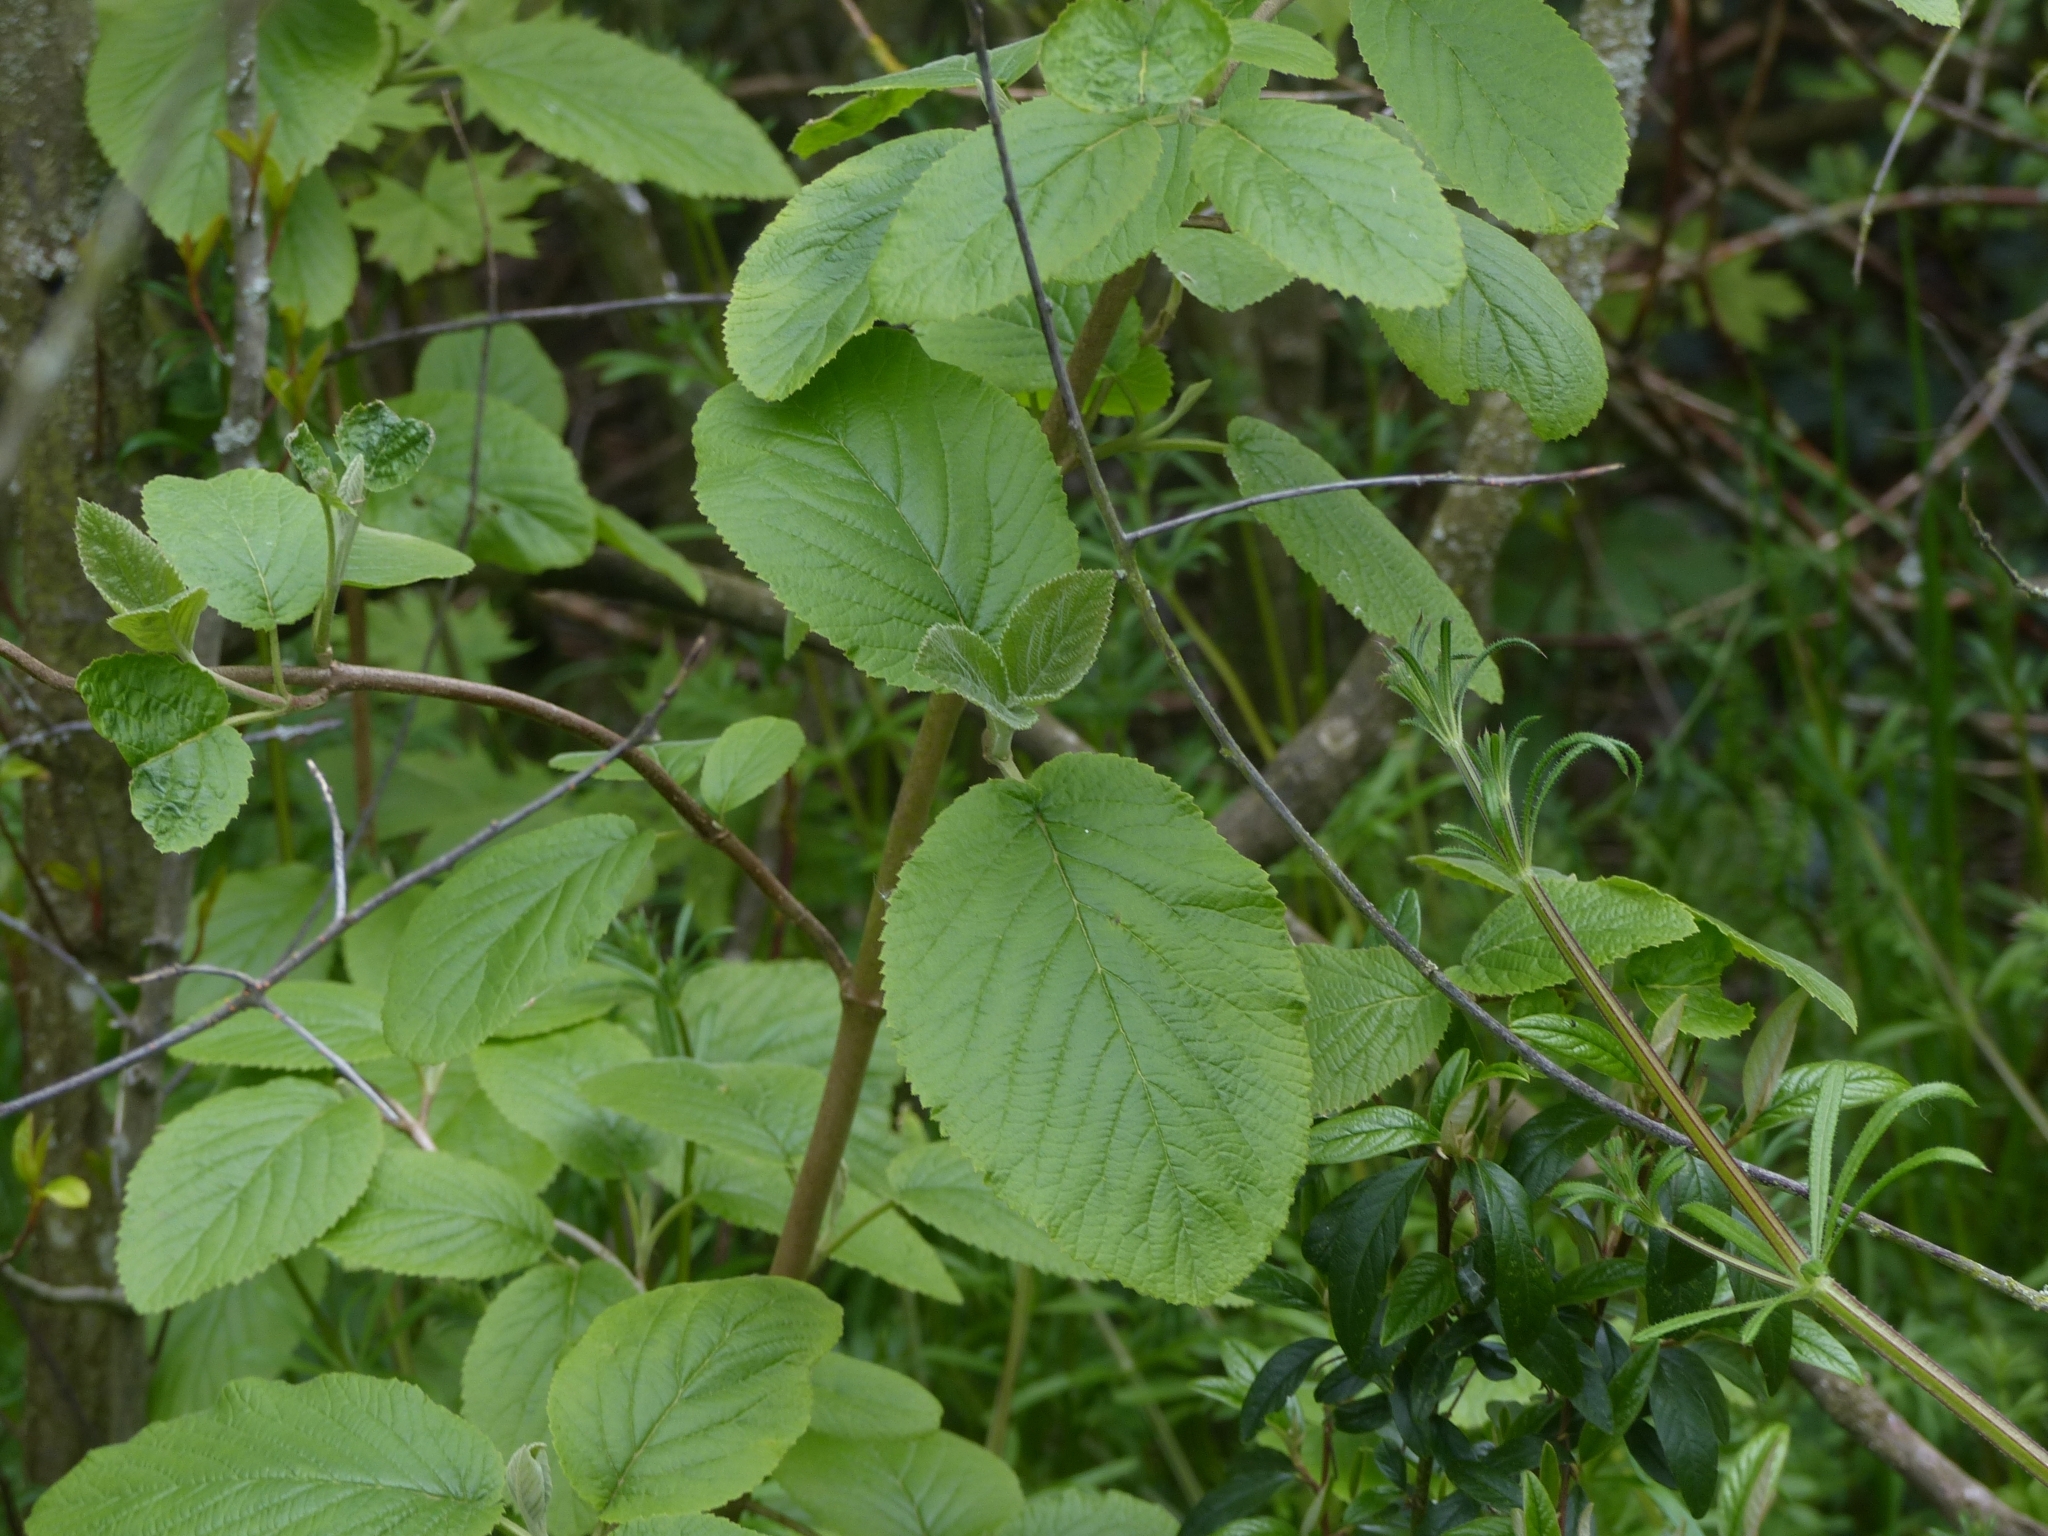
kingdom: Plantae
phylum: Tracheophyta
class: Magnoliopsida
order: Dipsacales
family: Viburnaceae
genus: Viburnum
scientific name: Viburnum lantana
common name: Wayfaring tree
